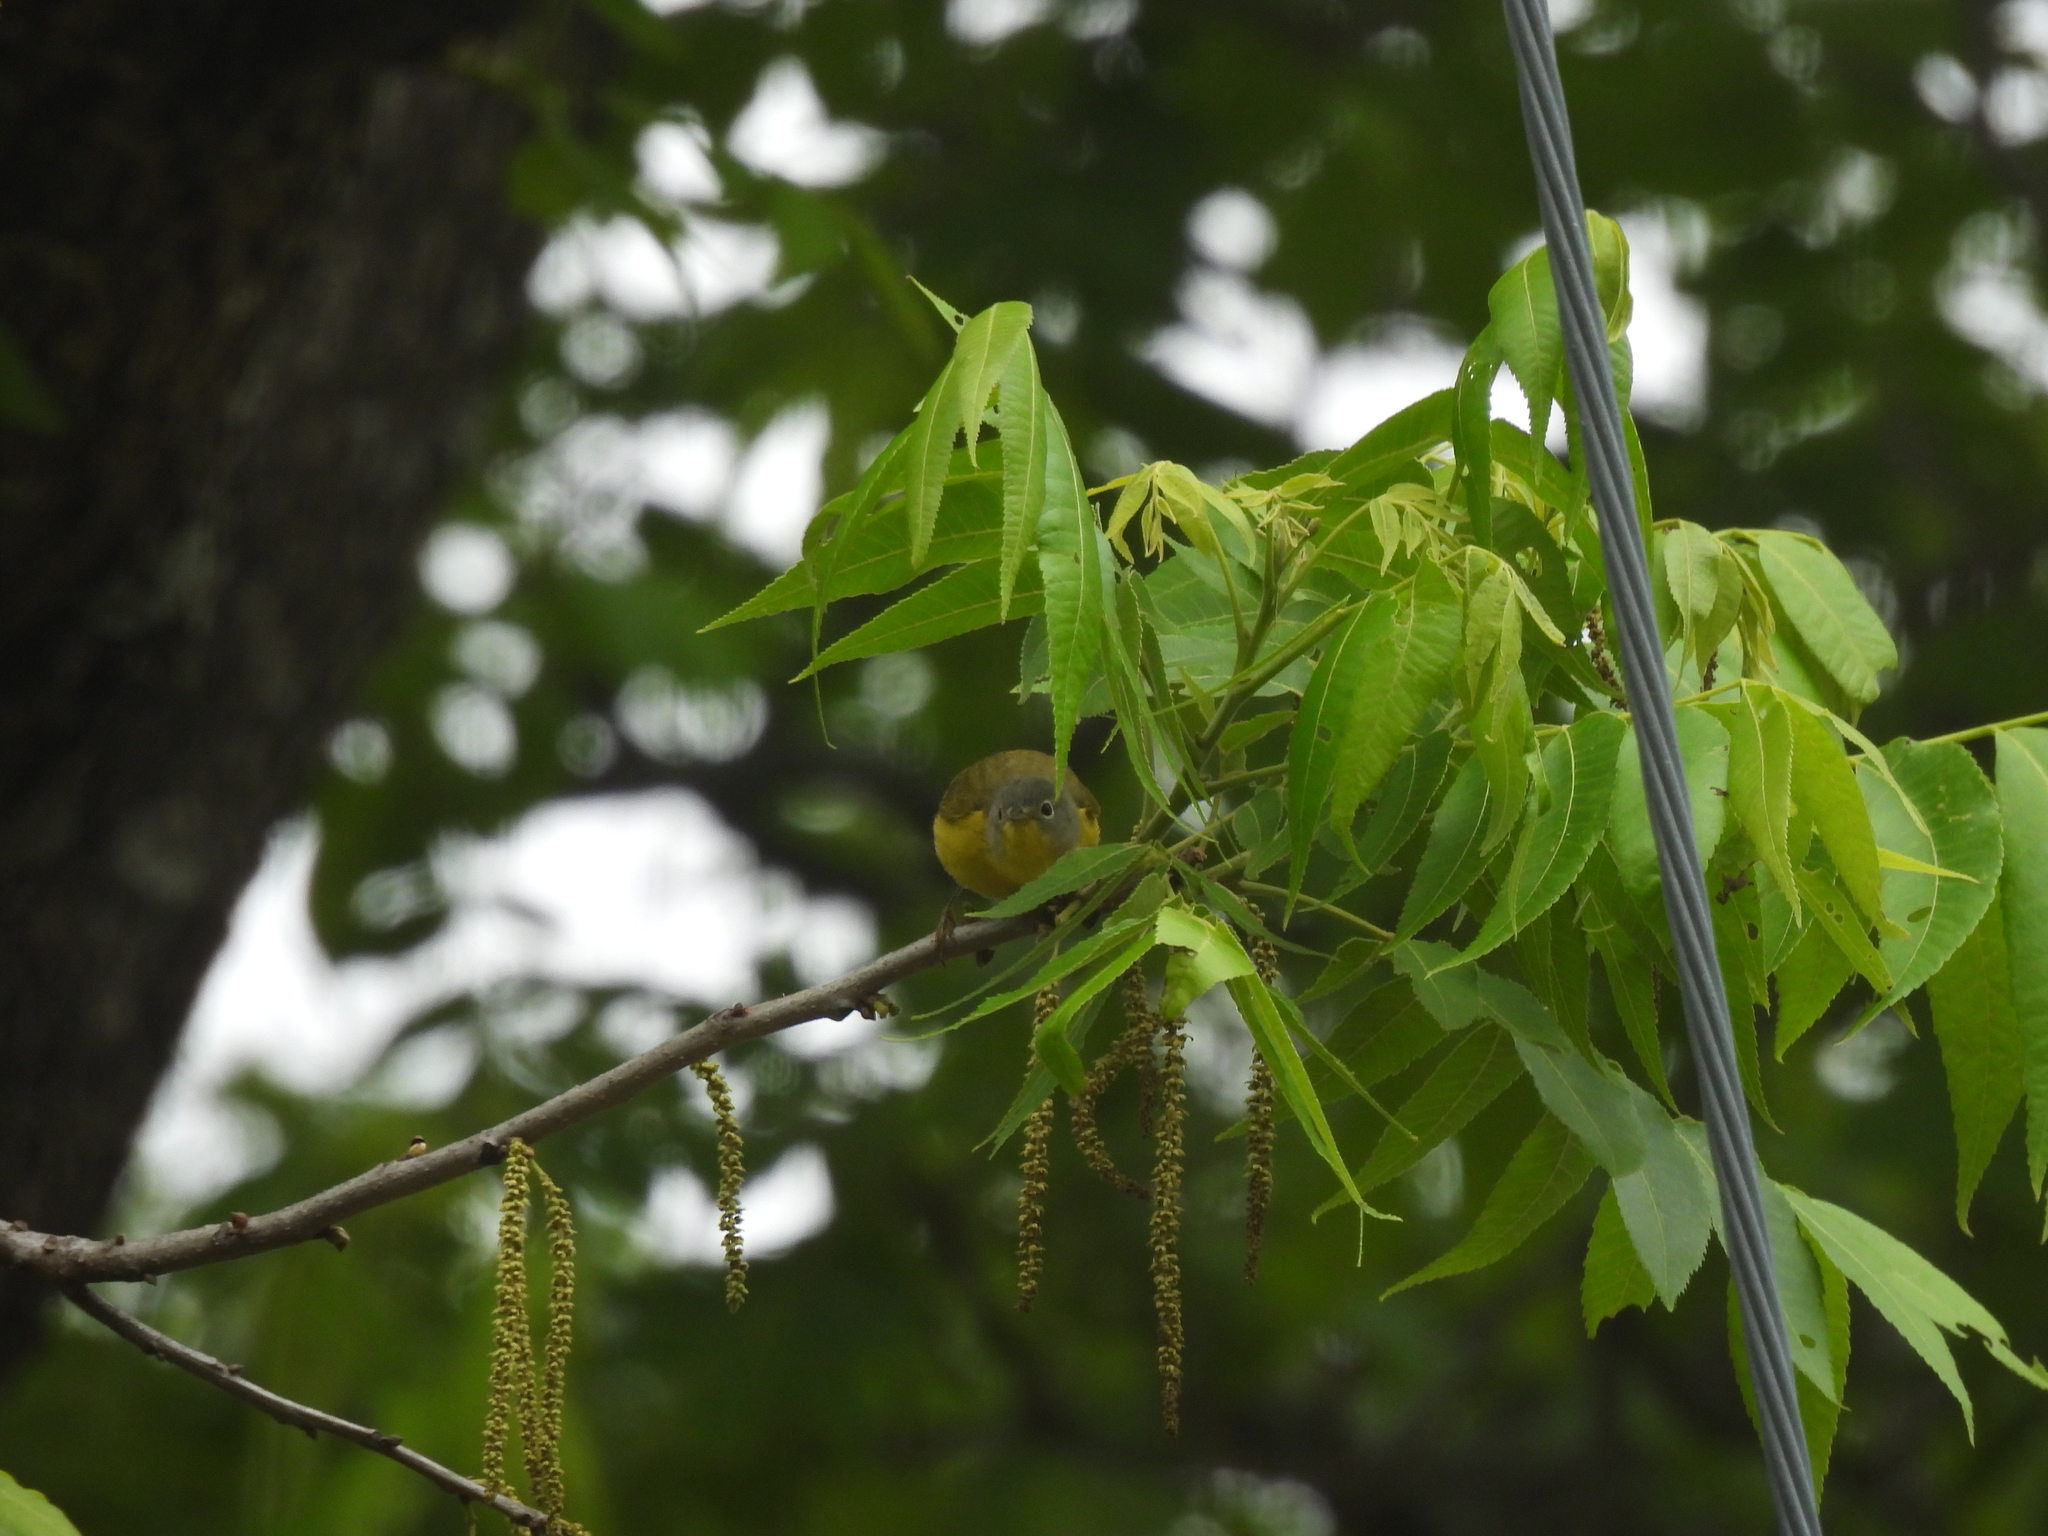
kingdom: Animalia
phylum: Chordata
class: Aves
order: Passeriformes
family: Parulidae
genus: Leiothlypis
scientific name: Leiothlypis ruficapilla
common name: Nashville warbler
